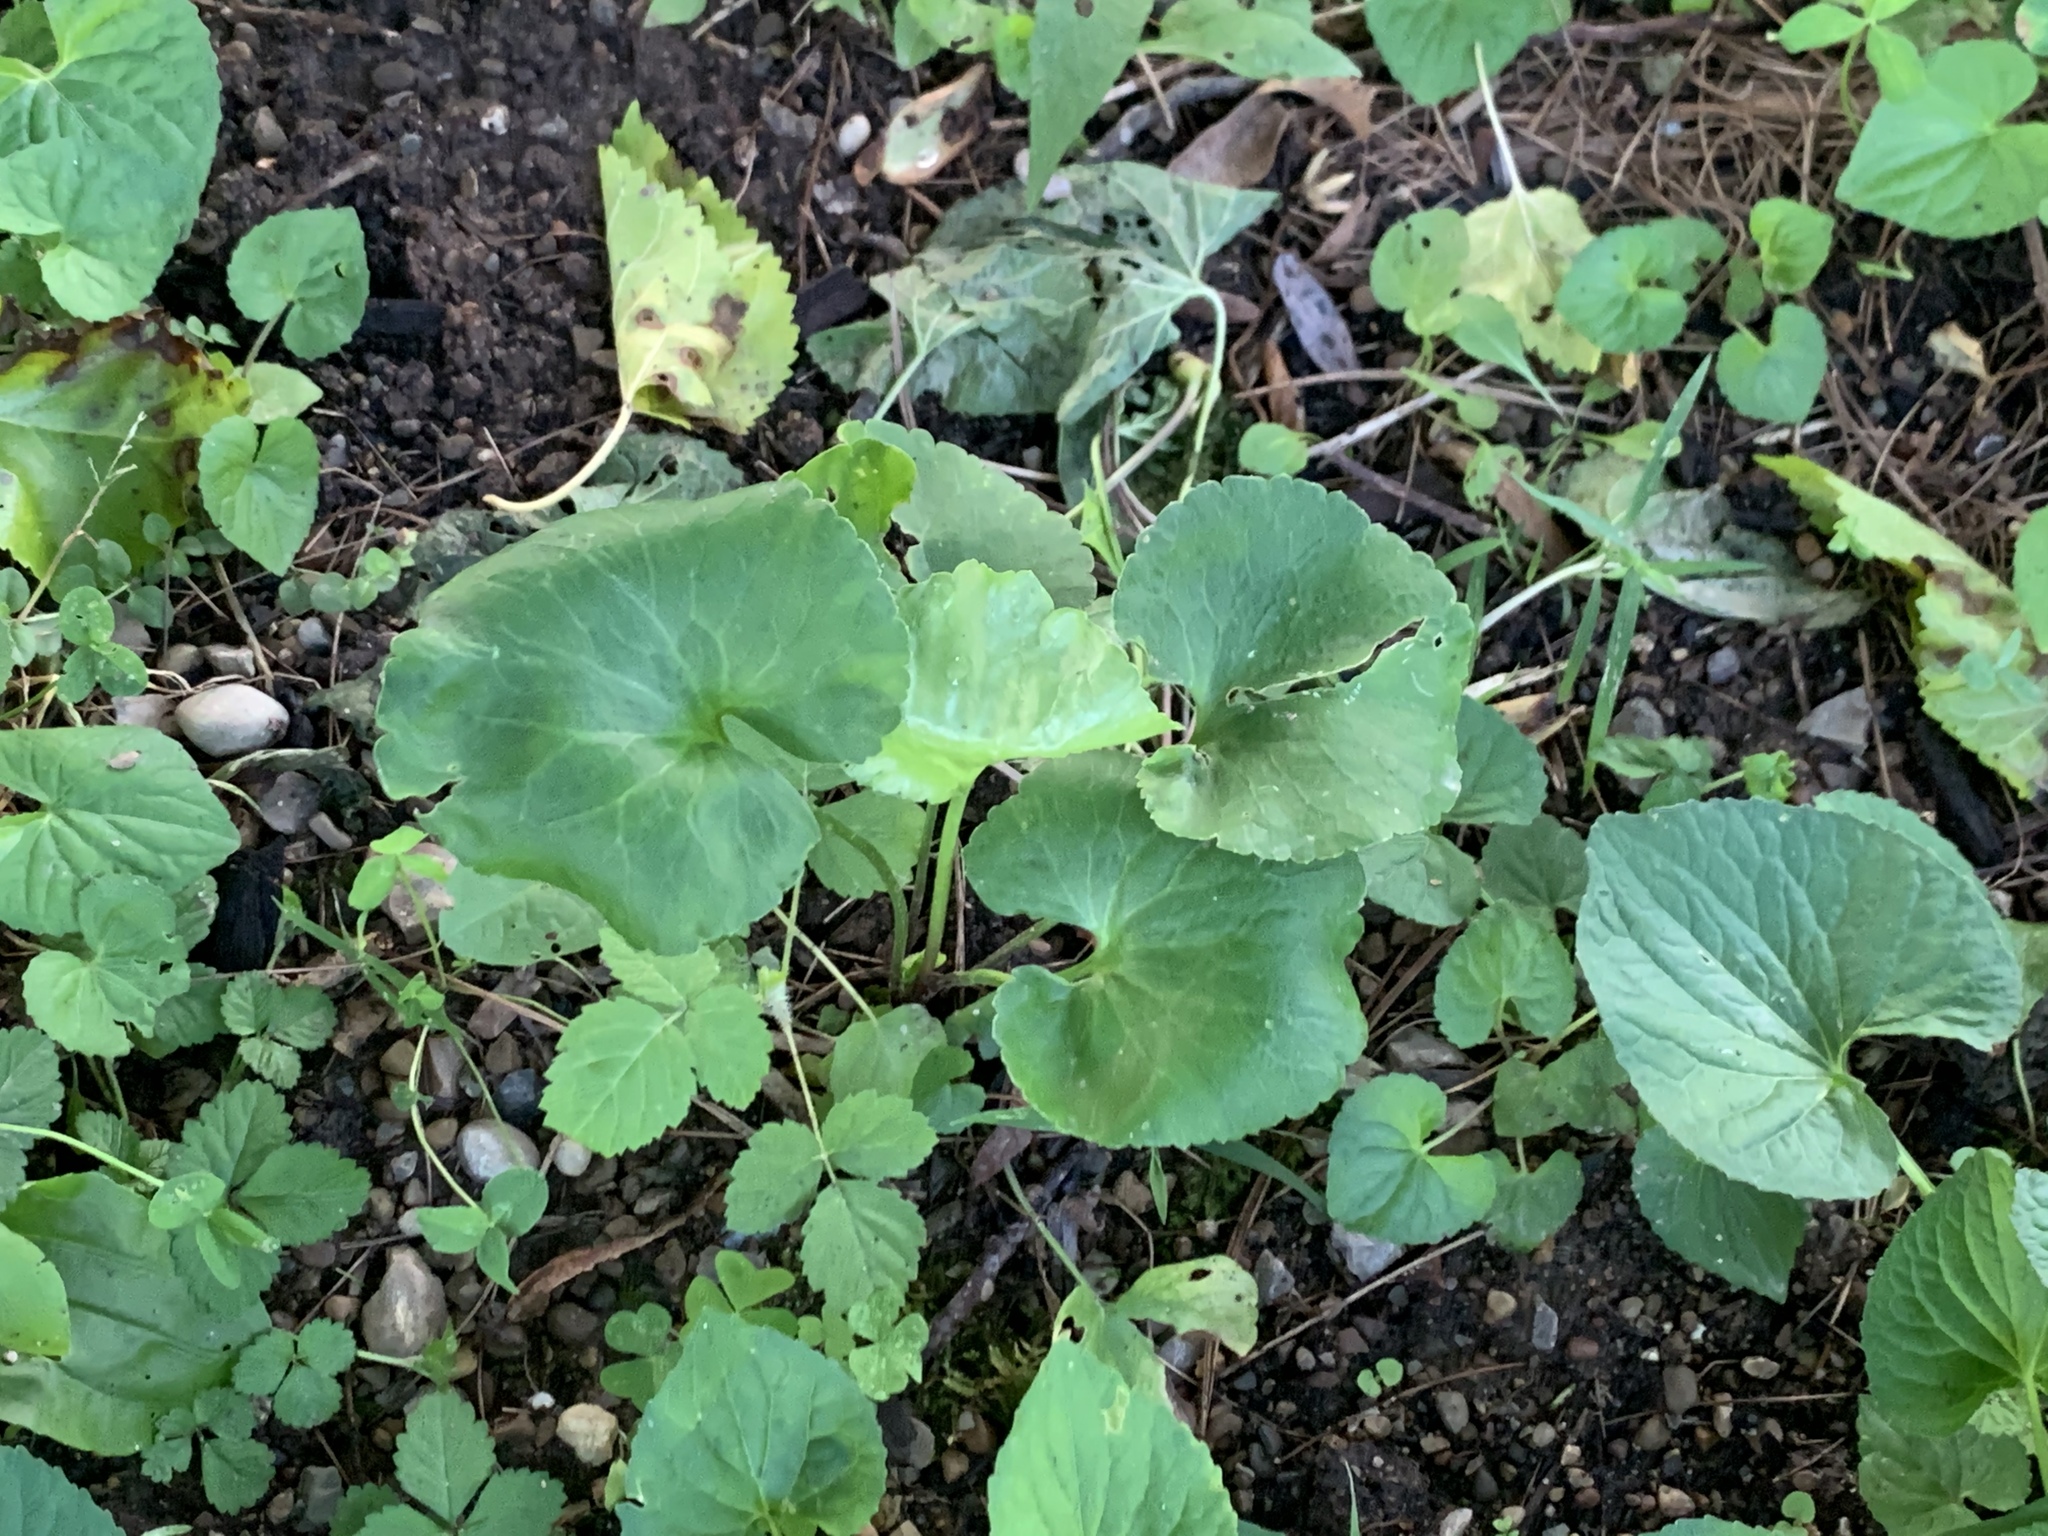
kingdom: Plantae
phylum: Tracheophyta
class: Magnoliopsida
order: Ranunculales
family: Ranunculaceae
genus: Caltha
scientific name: Caltha palustris
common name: Marsh marigold
